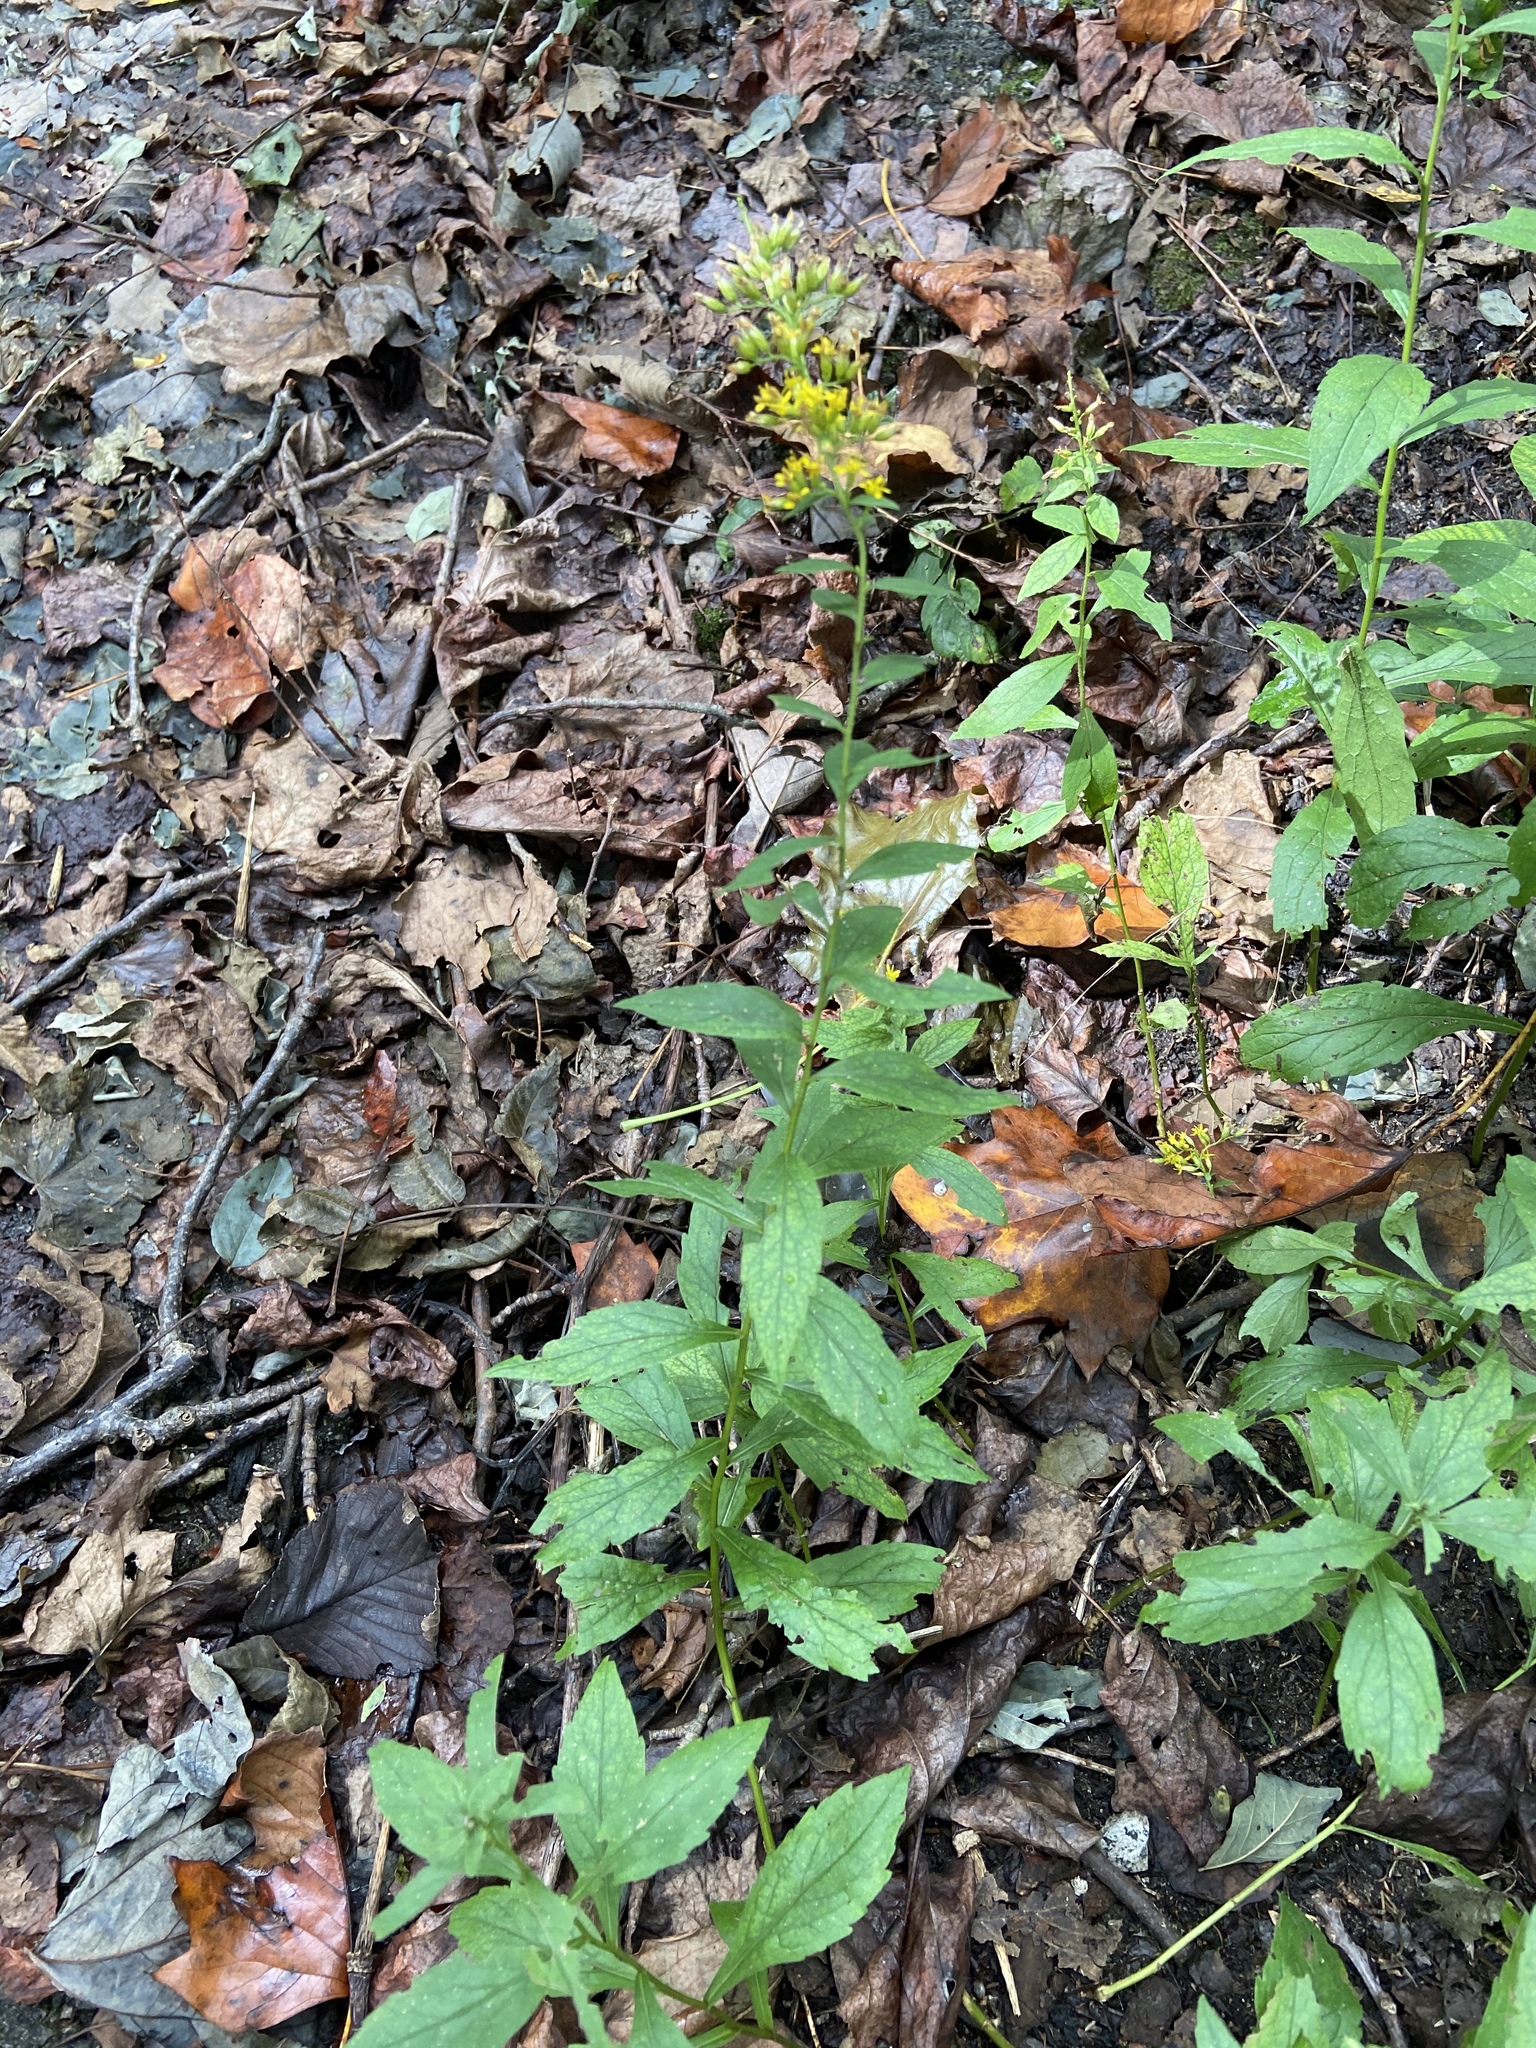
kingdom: Plantae
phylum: Tracheophyta
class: Magnoliopsida
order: Asterales
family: Asteraceae
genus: Solidago
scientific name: Solidago ulmifolia
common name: Elm-leaf goldenrod
